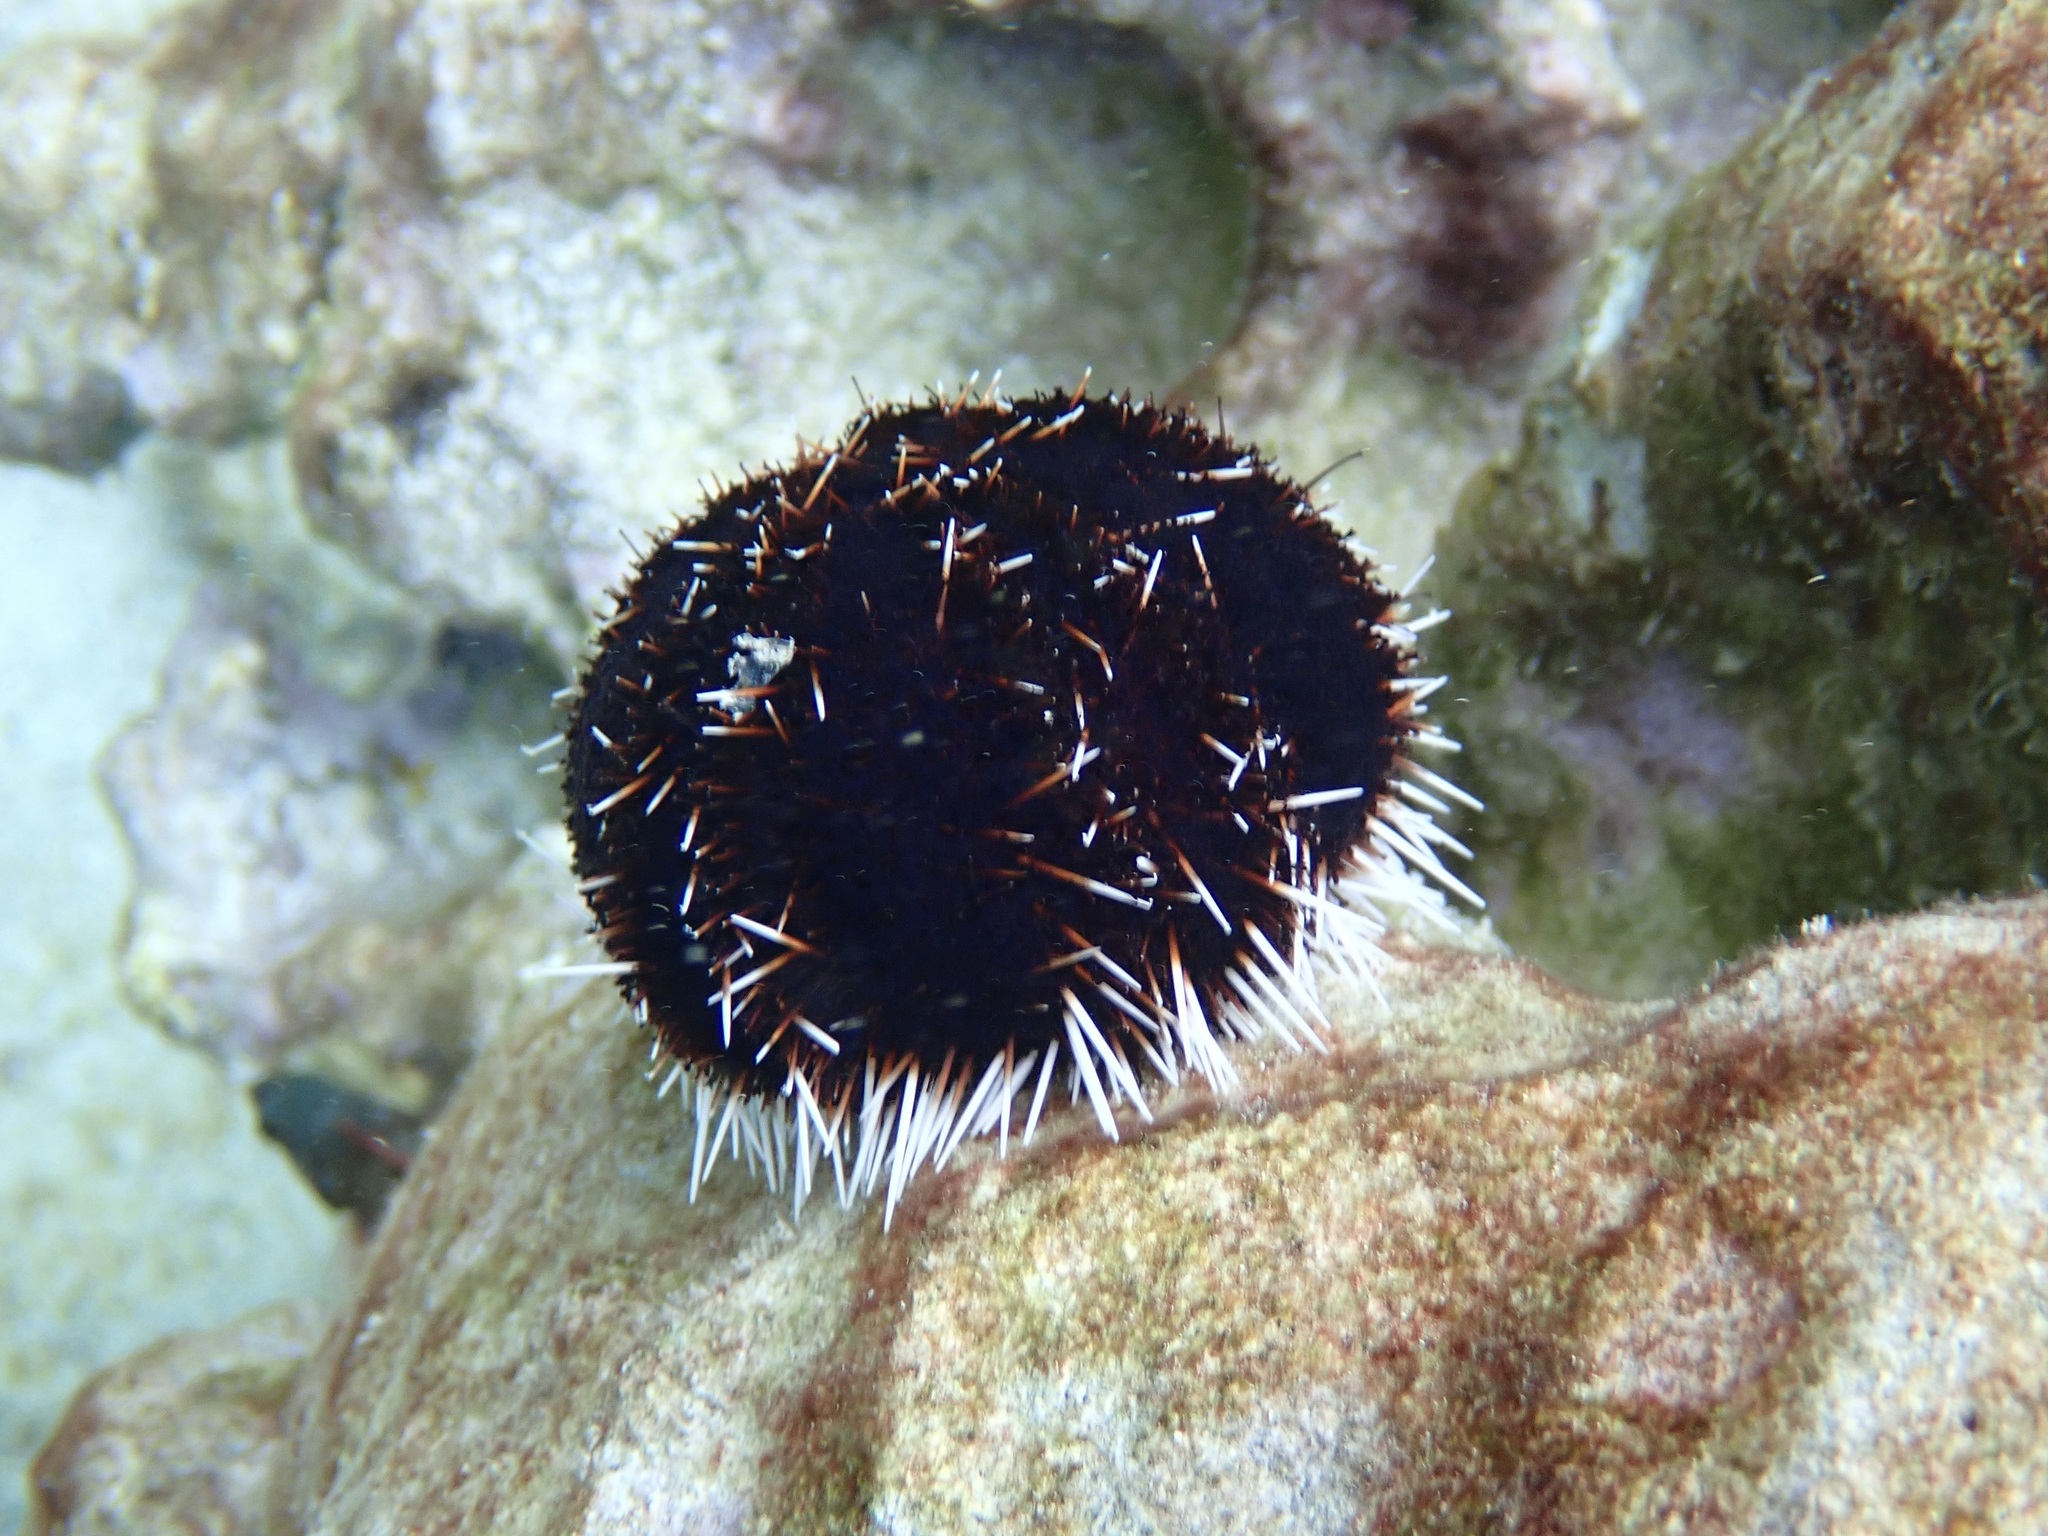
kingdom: Animalia
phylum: Echinodermata
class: Echinoidea
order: Camarodonta
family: Toxopneustidae
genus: Tripneustes
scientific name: Tripneustes gratilla
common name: Bischofsmützenseeigel
